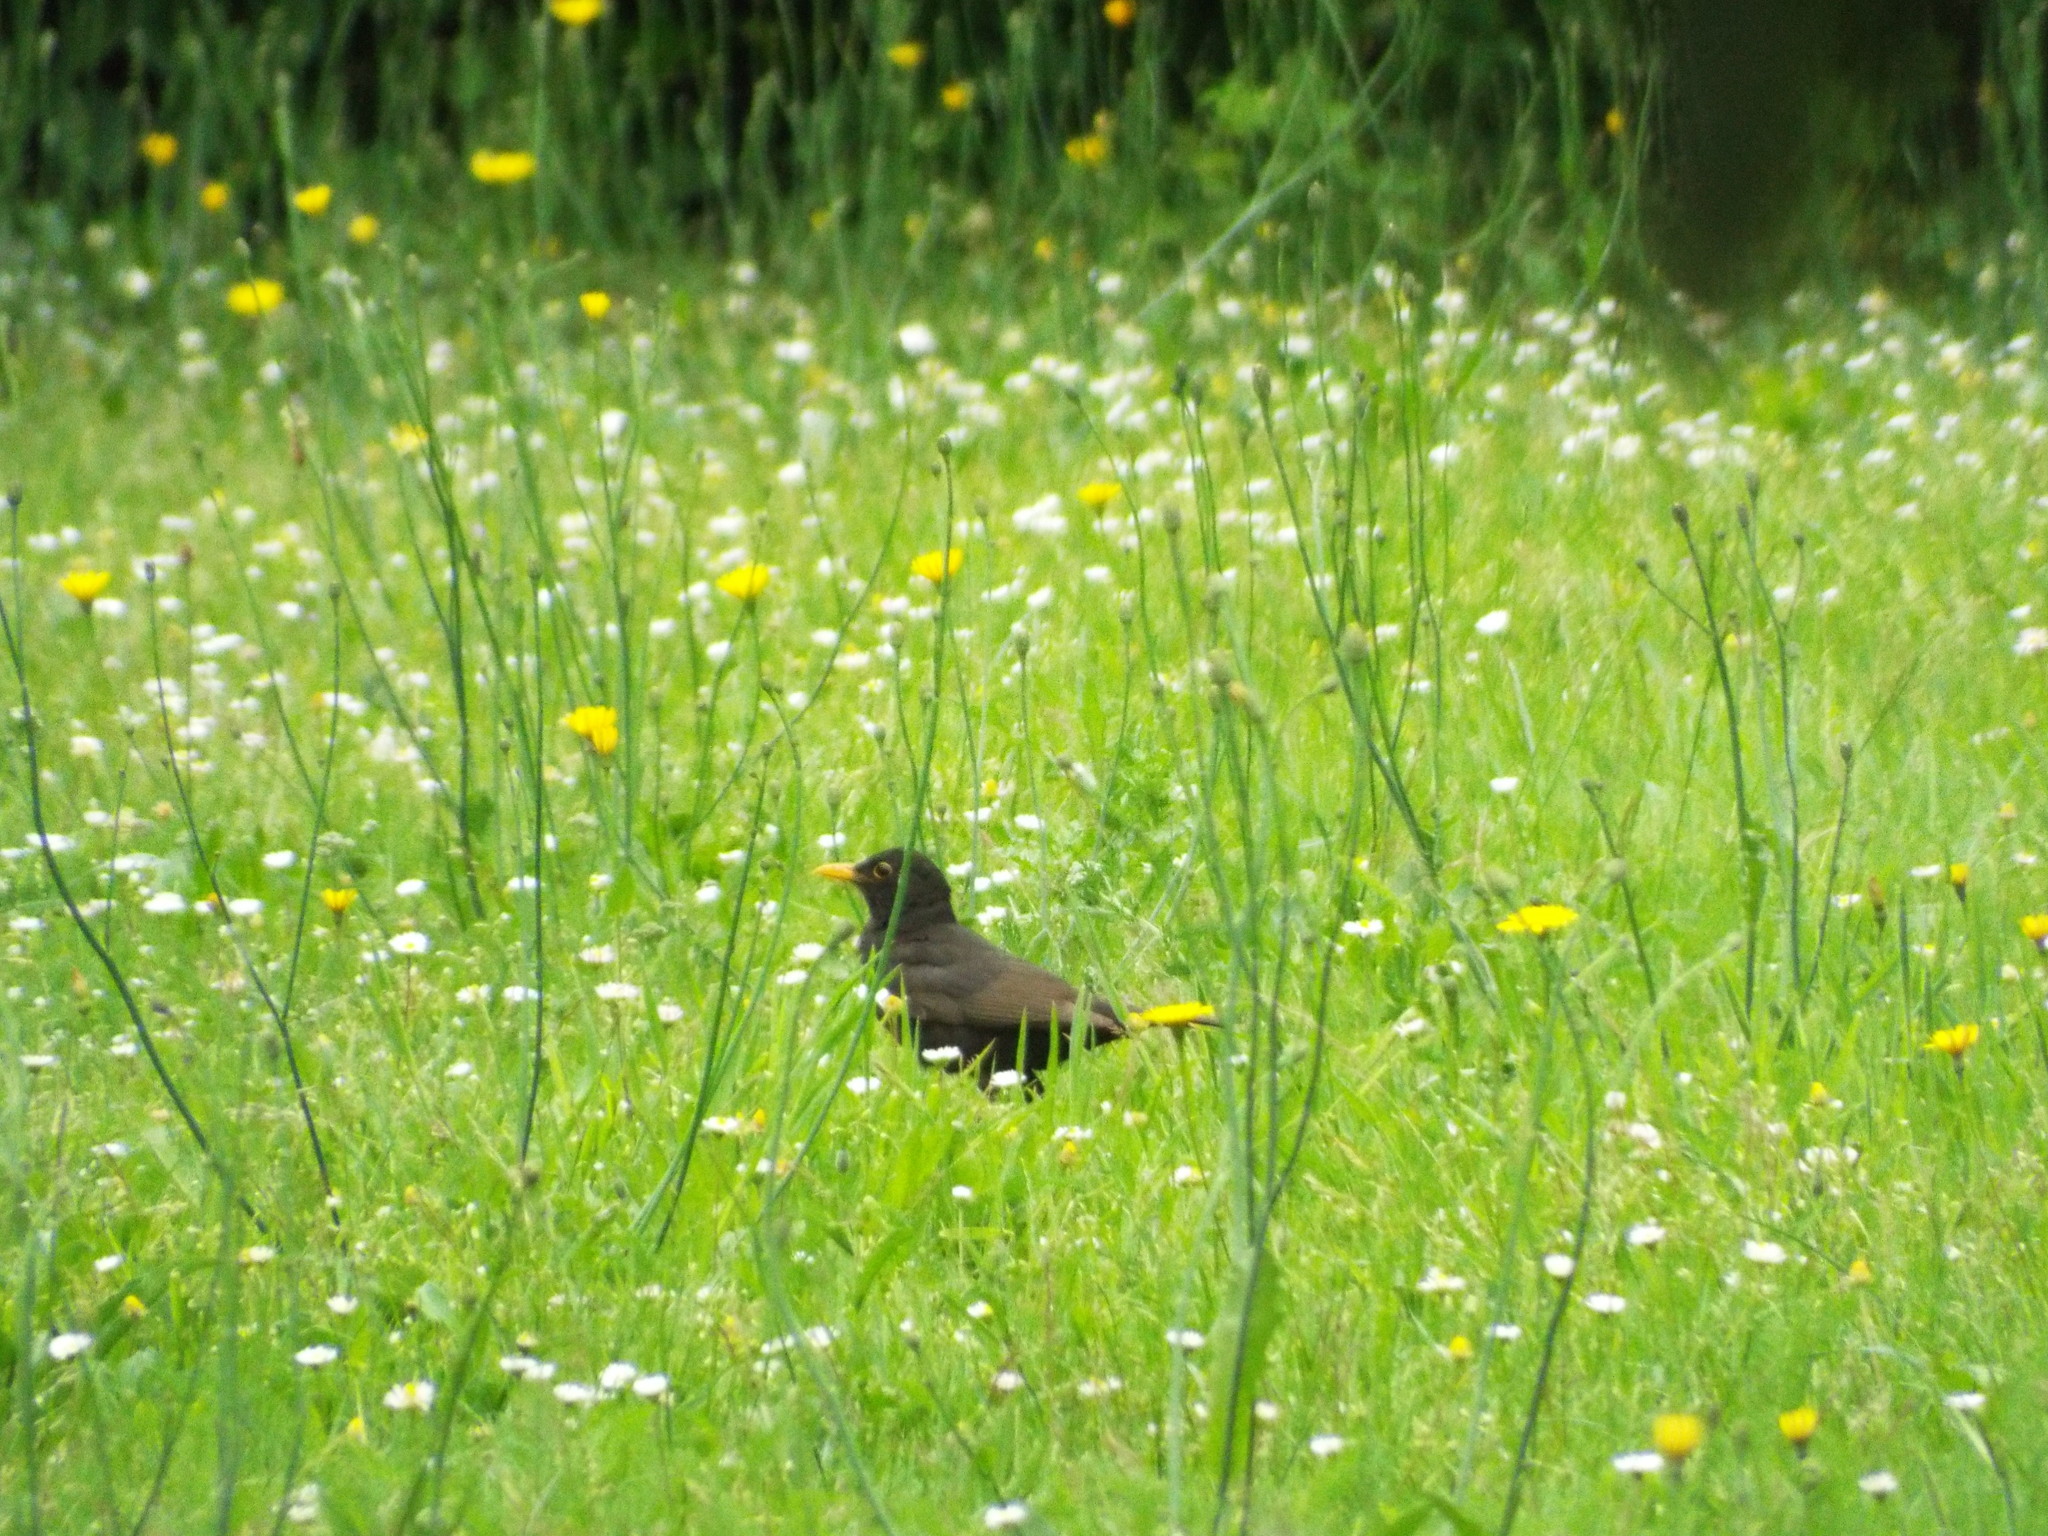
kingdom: Animalia
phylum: Chordata
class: Aves
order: Passeriformes
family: Turdidae
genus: Turdus
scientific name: Turdus merula
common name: Common blackbird
